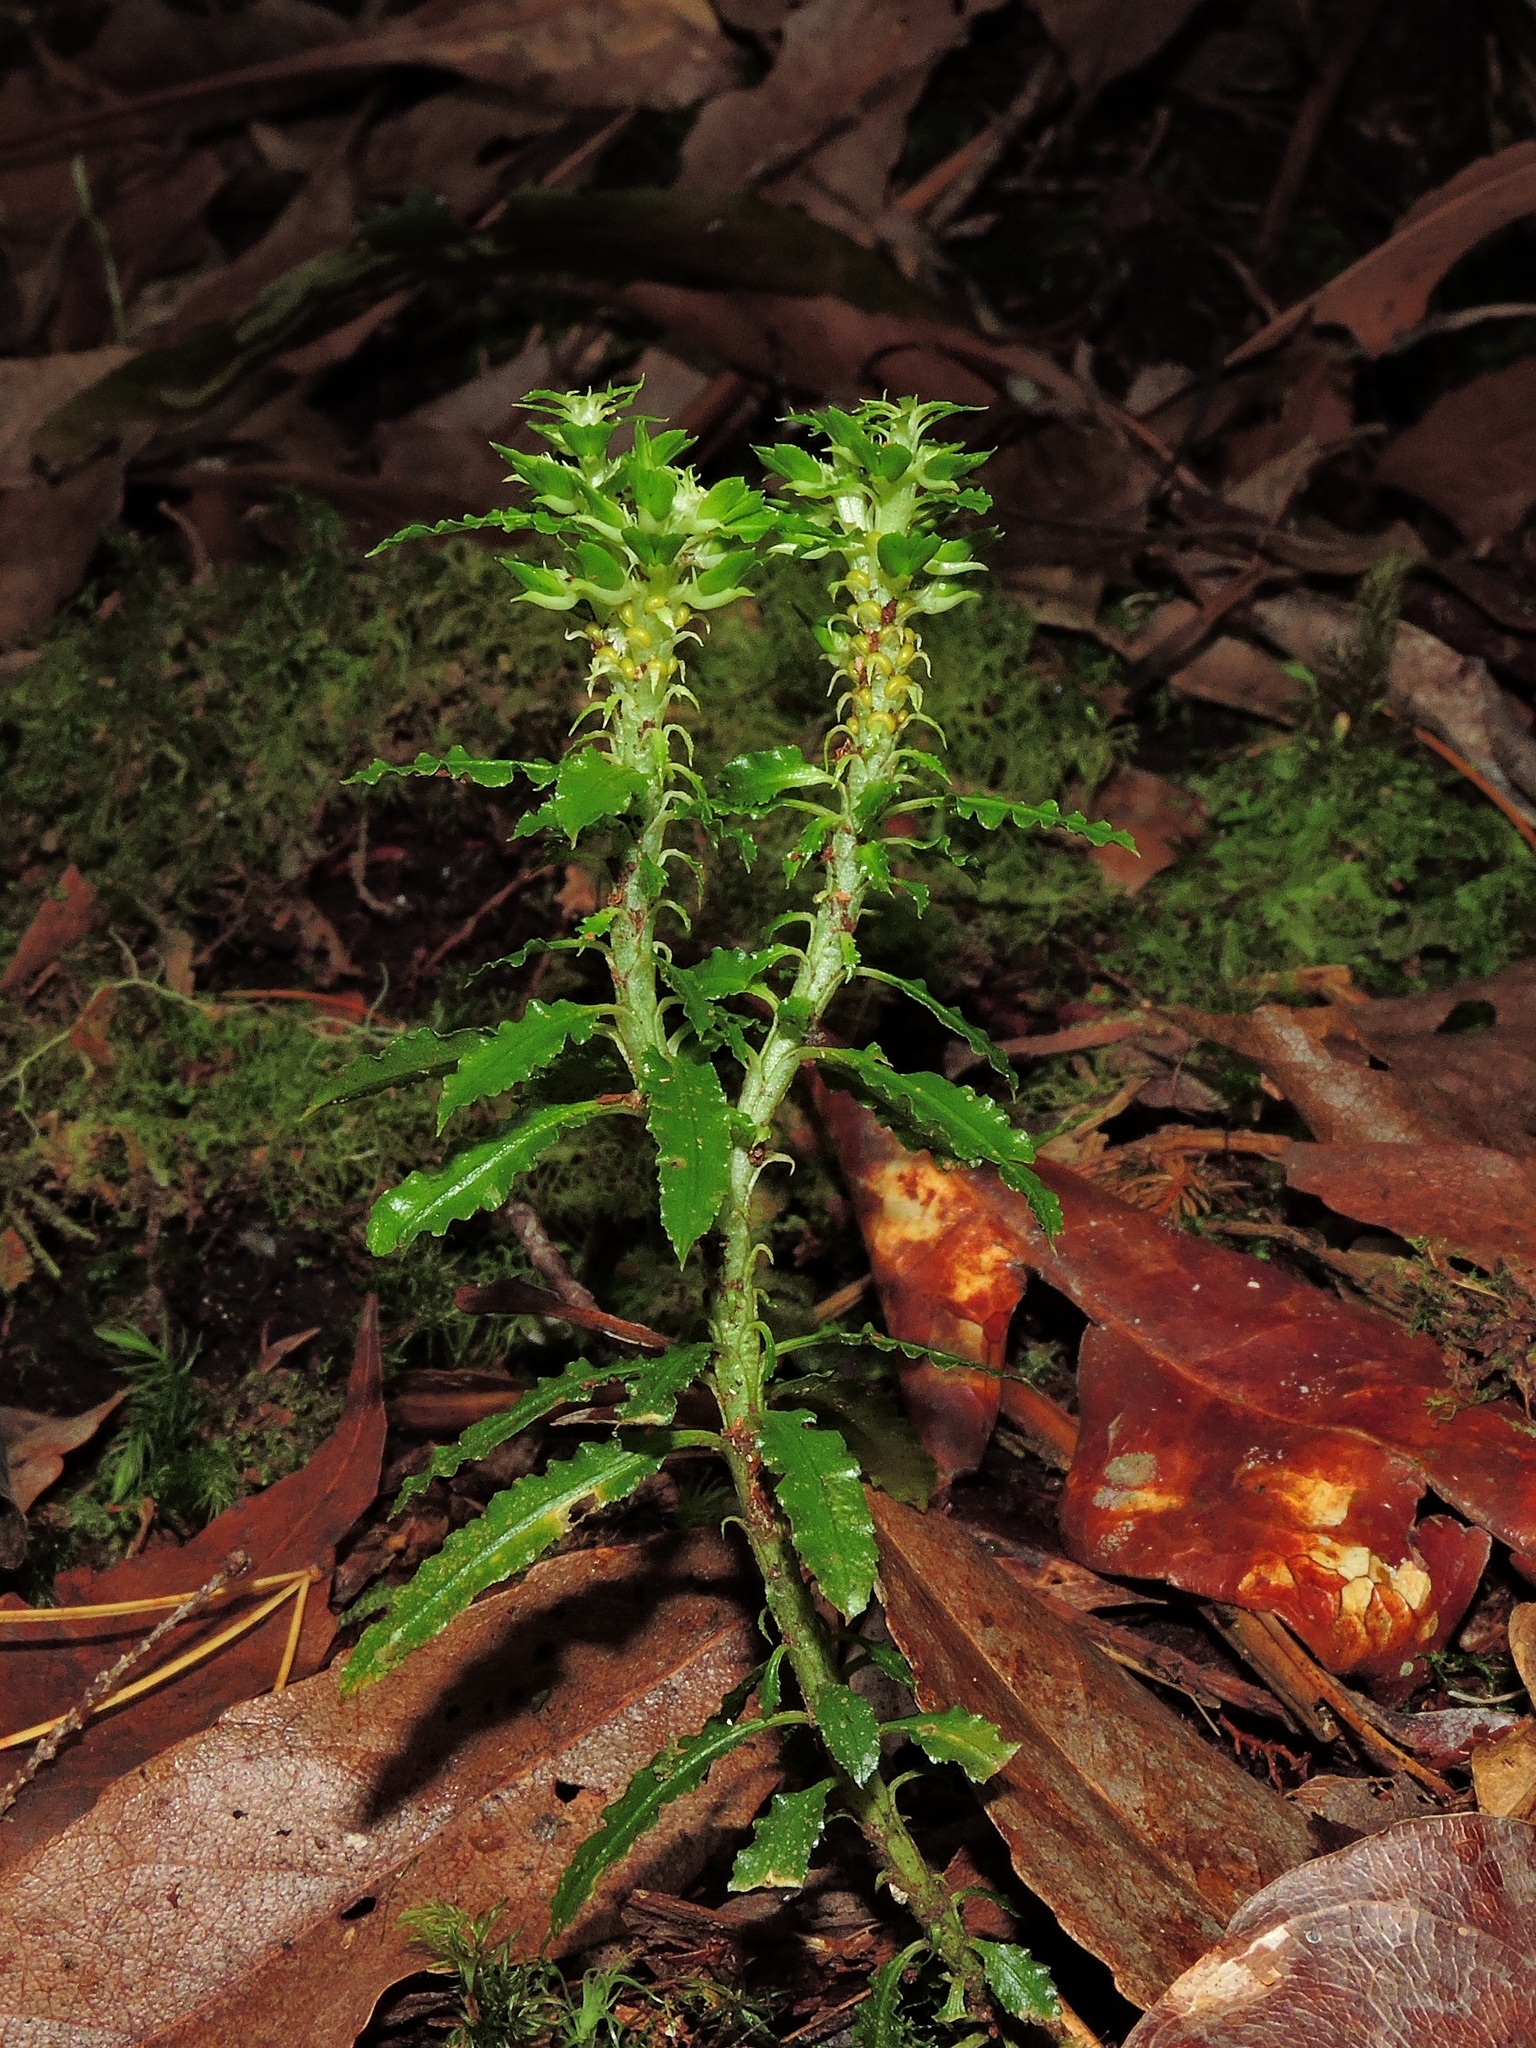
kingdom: Plantae
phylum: Tracheophyta
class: Lycopodiopsida
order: Lycopodiales
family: Lycopodiaceae
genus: Huperzia
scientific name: Huperzia javanica
